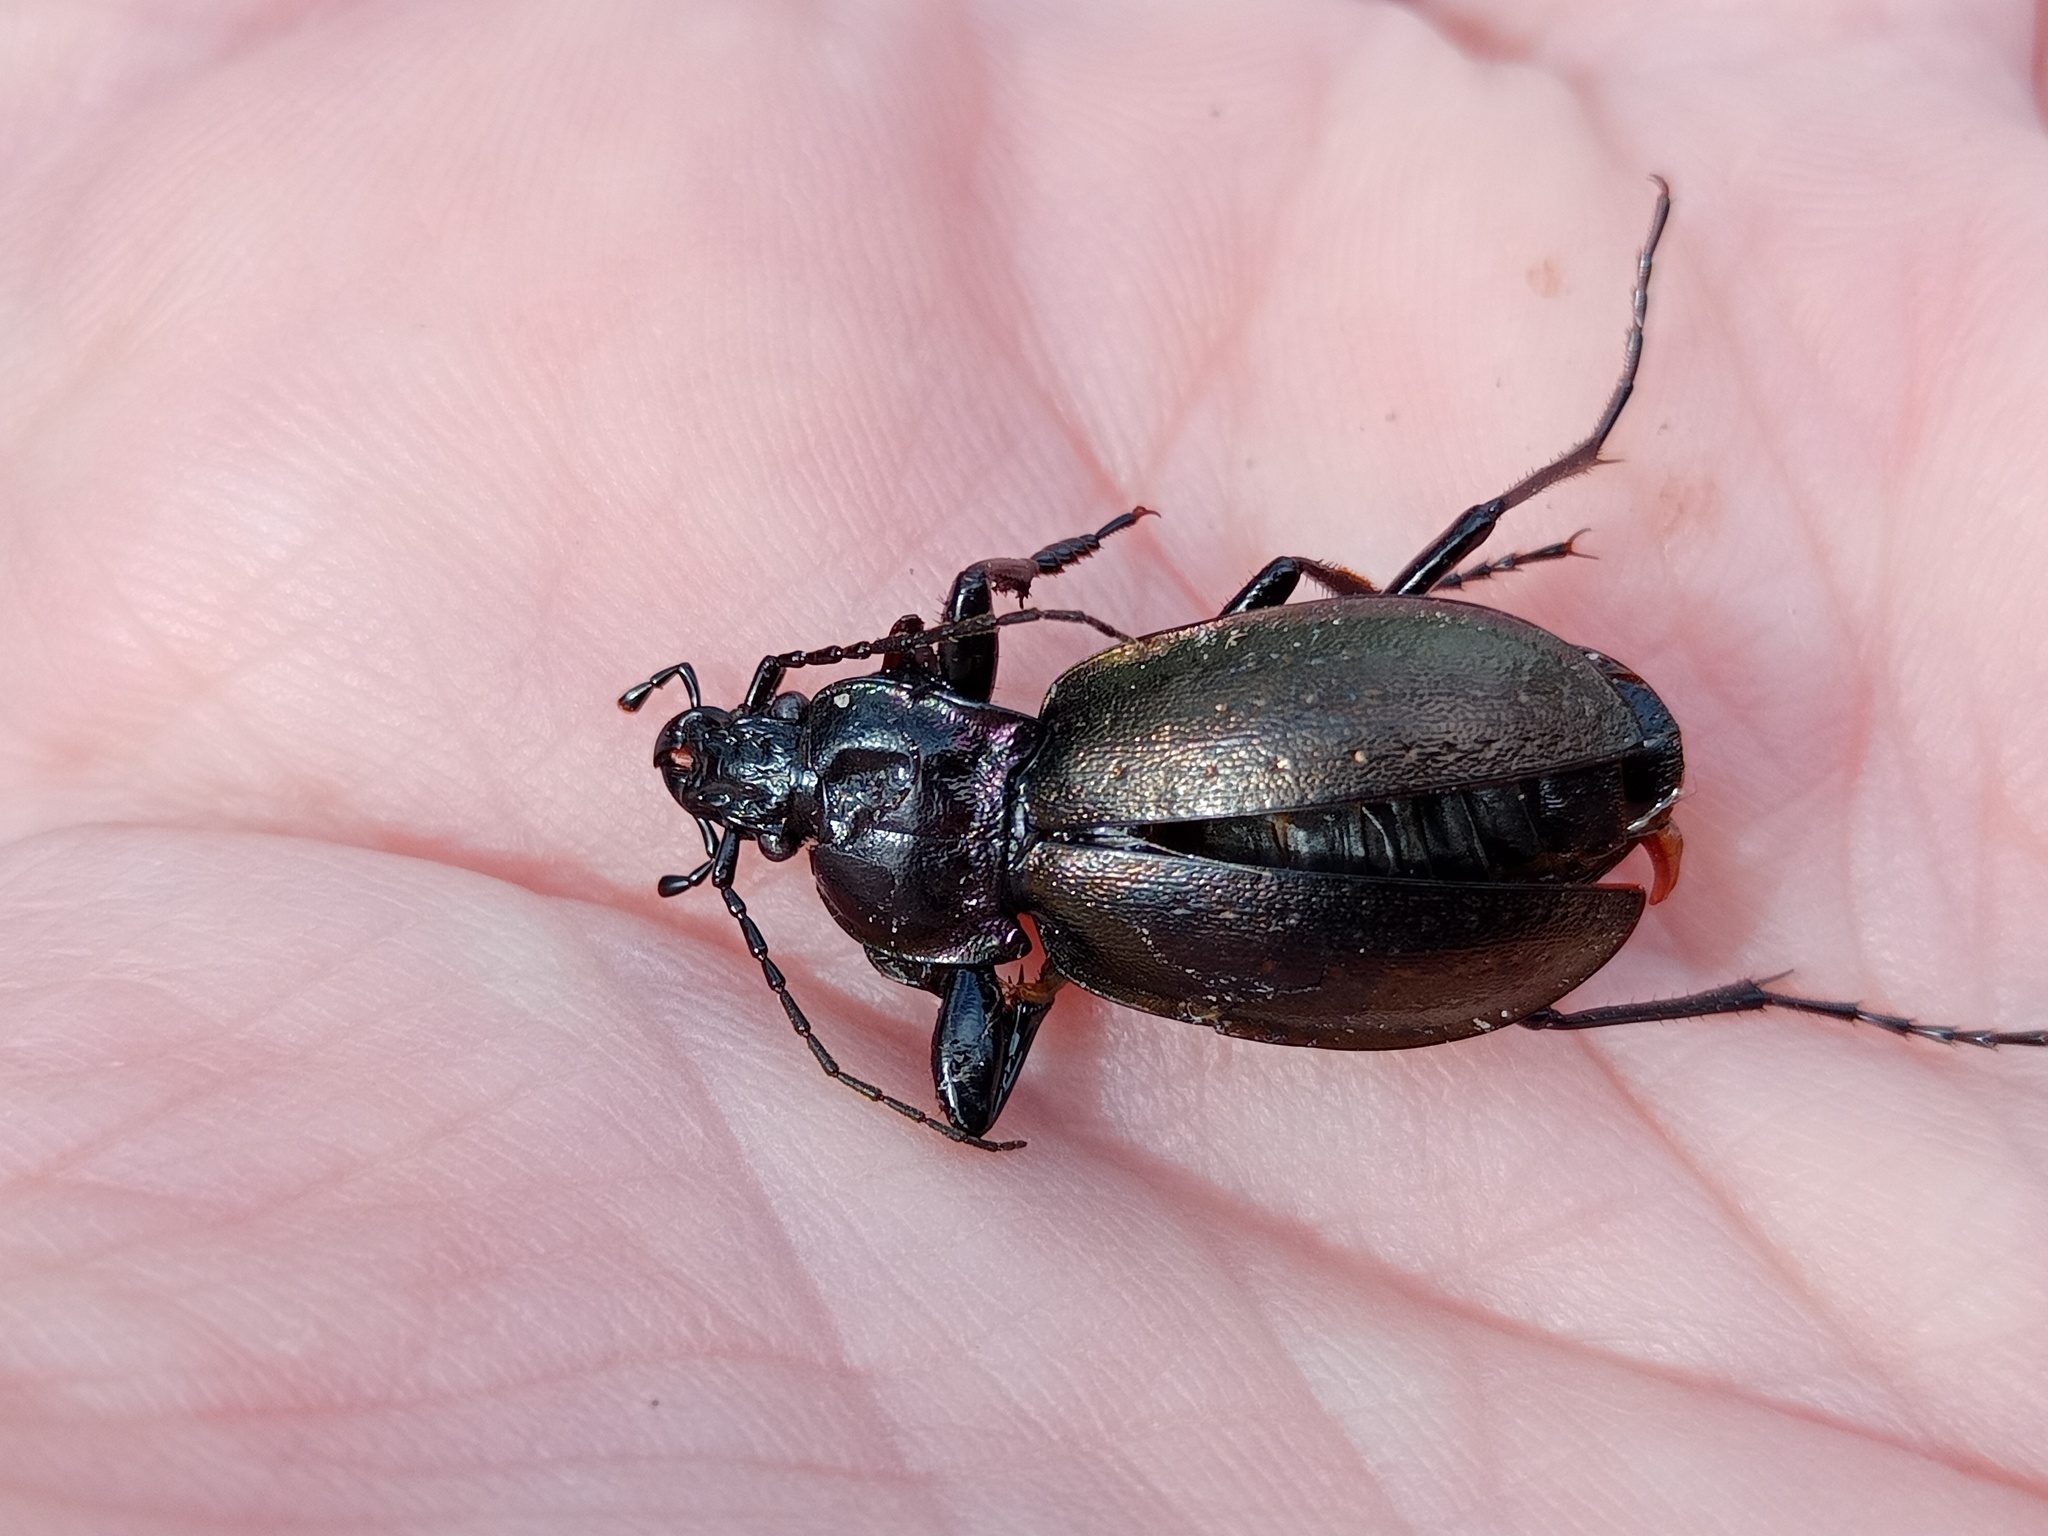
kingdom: Animalia
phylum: Arthropoda
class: Insecta
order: Coleoptera
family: Carabidae
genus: Carabus
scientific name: Carabus nemoralis
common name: European ground beetle
